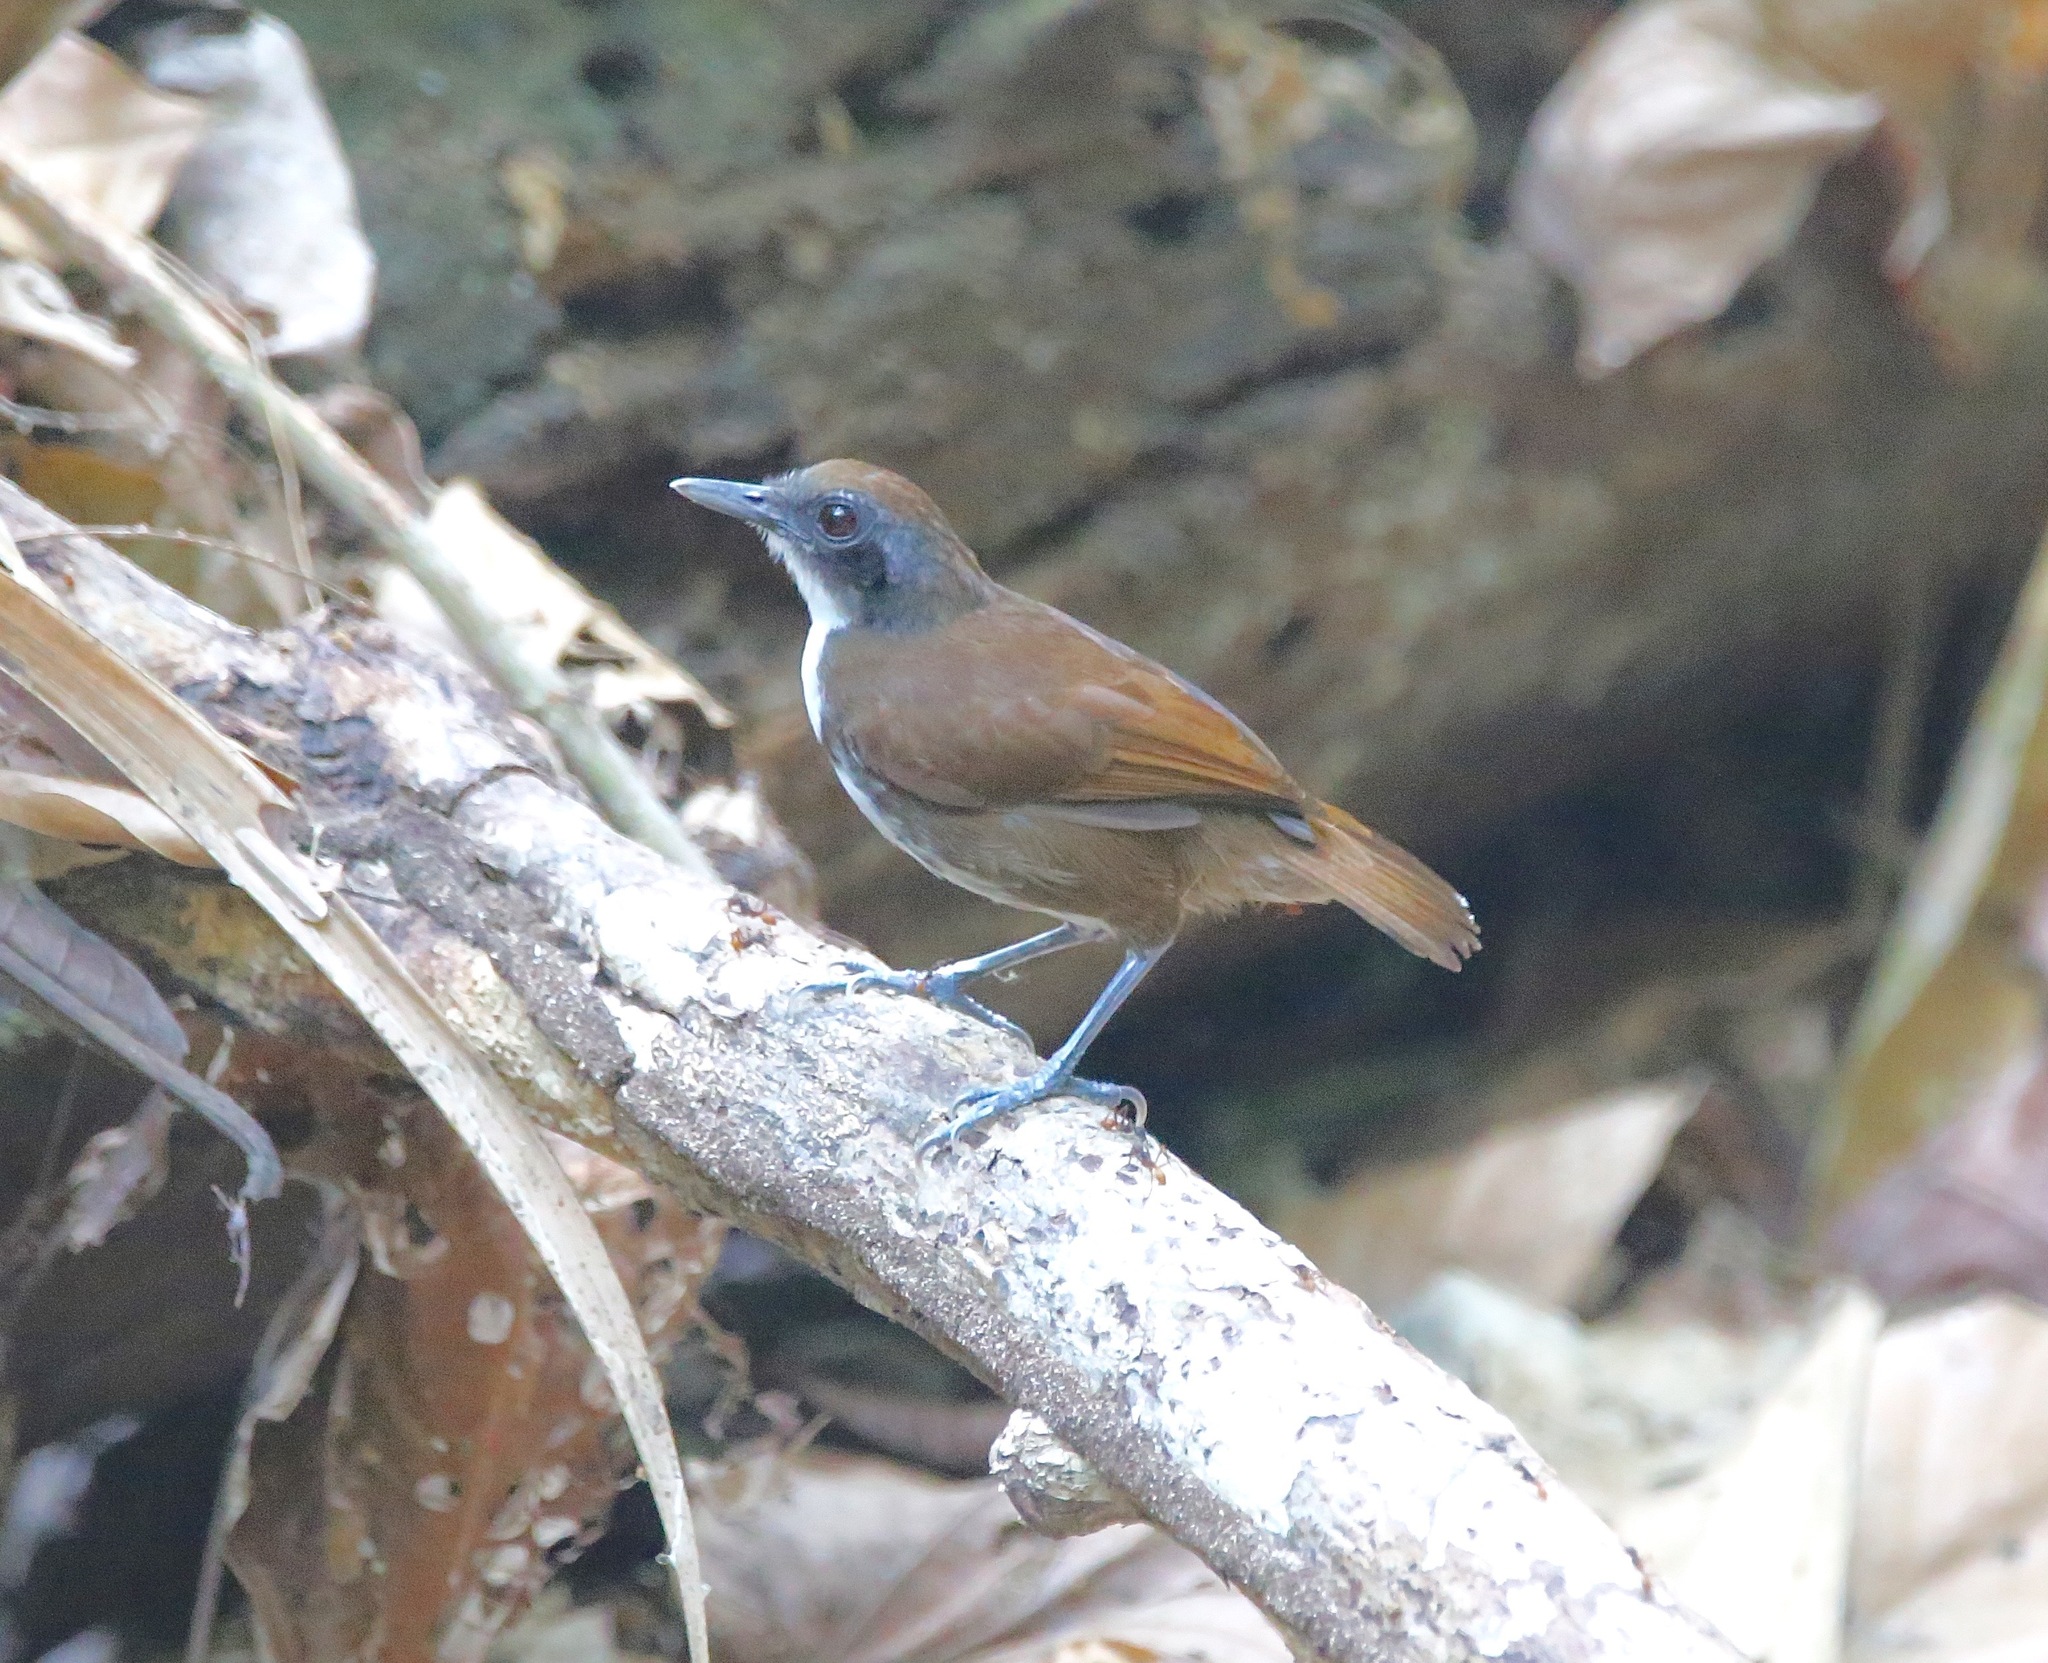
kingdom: Animalia
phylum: Chordata
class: Aves
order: Passeriformes
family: Thamnophilidae
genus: Gymnopithys
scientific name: Gymnopithys leucaspis
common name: White-cheeked antbird
